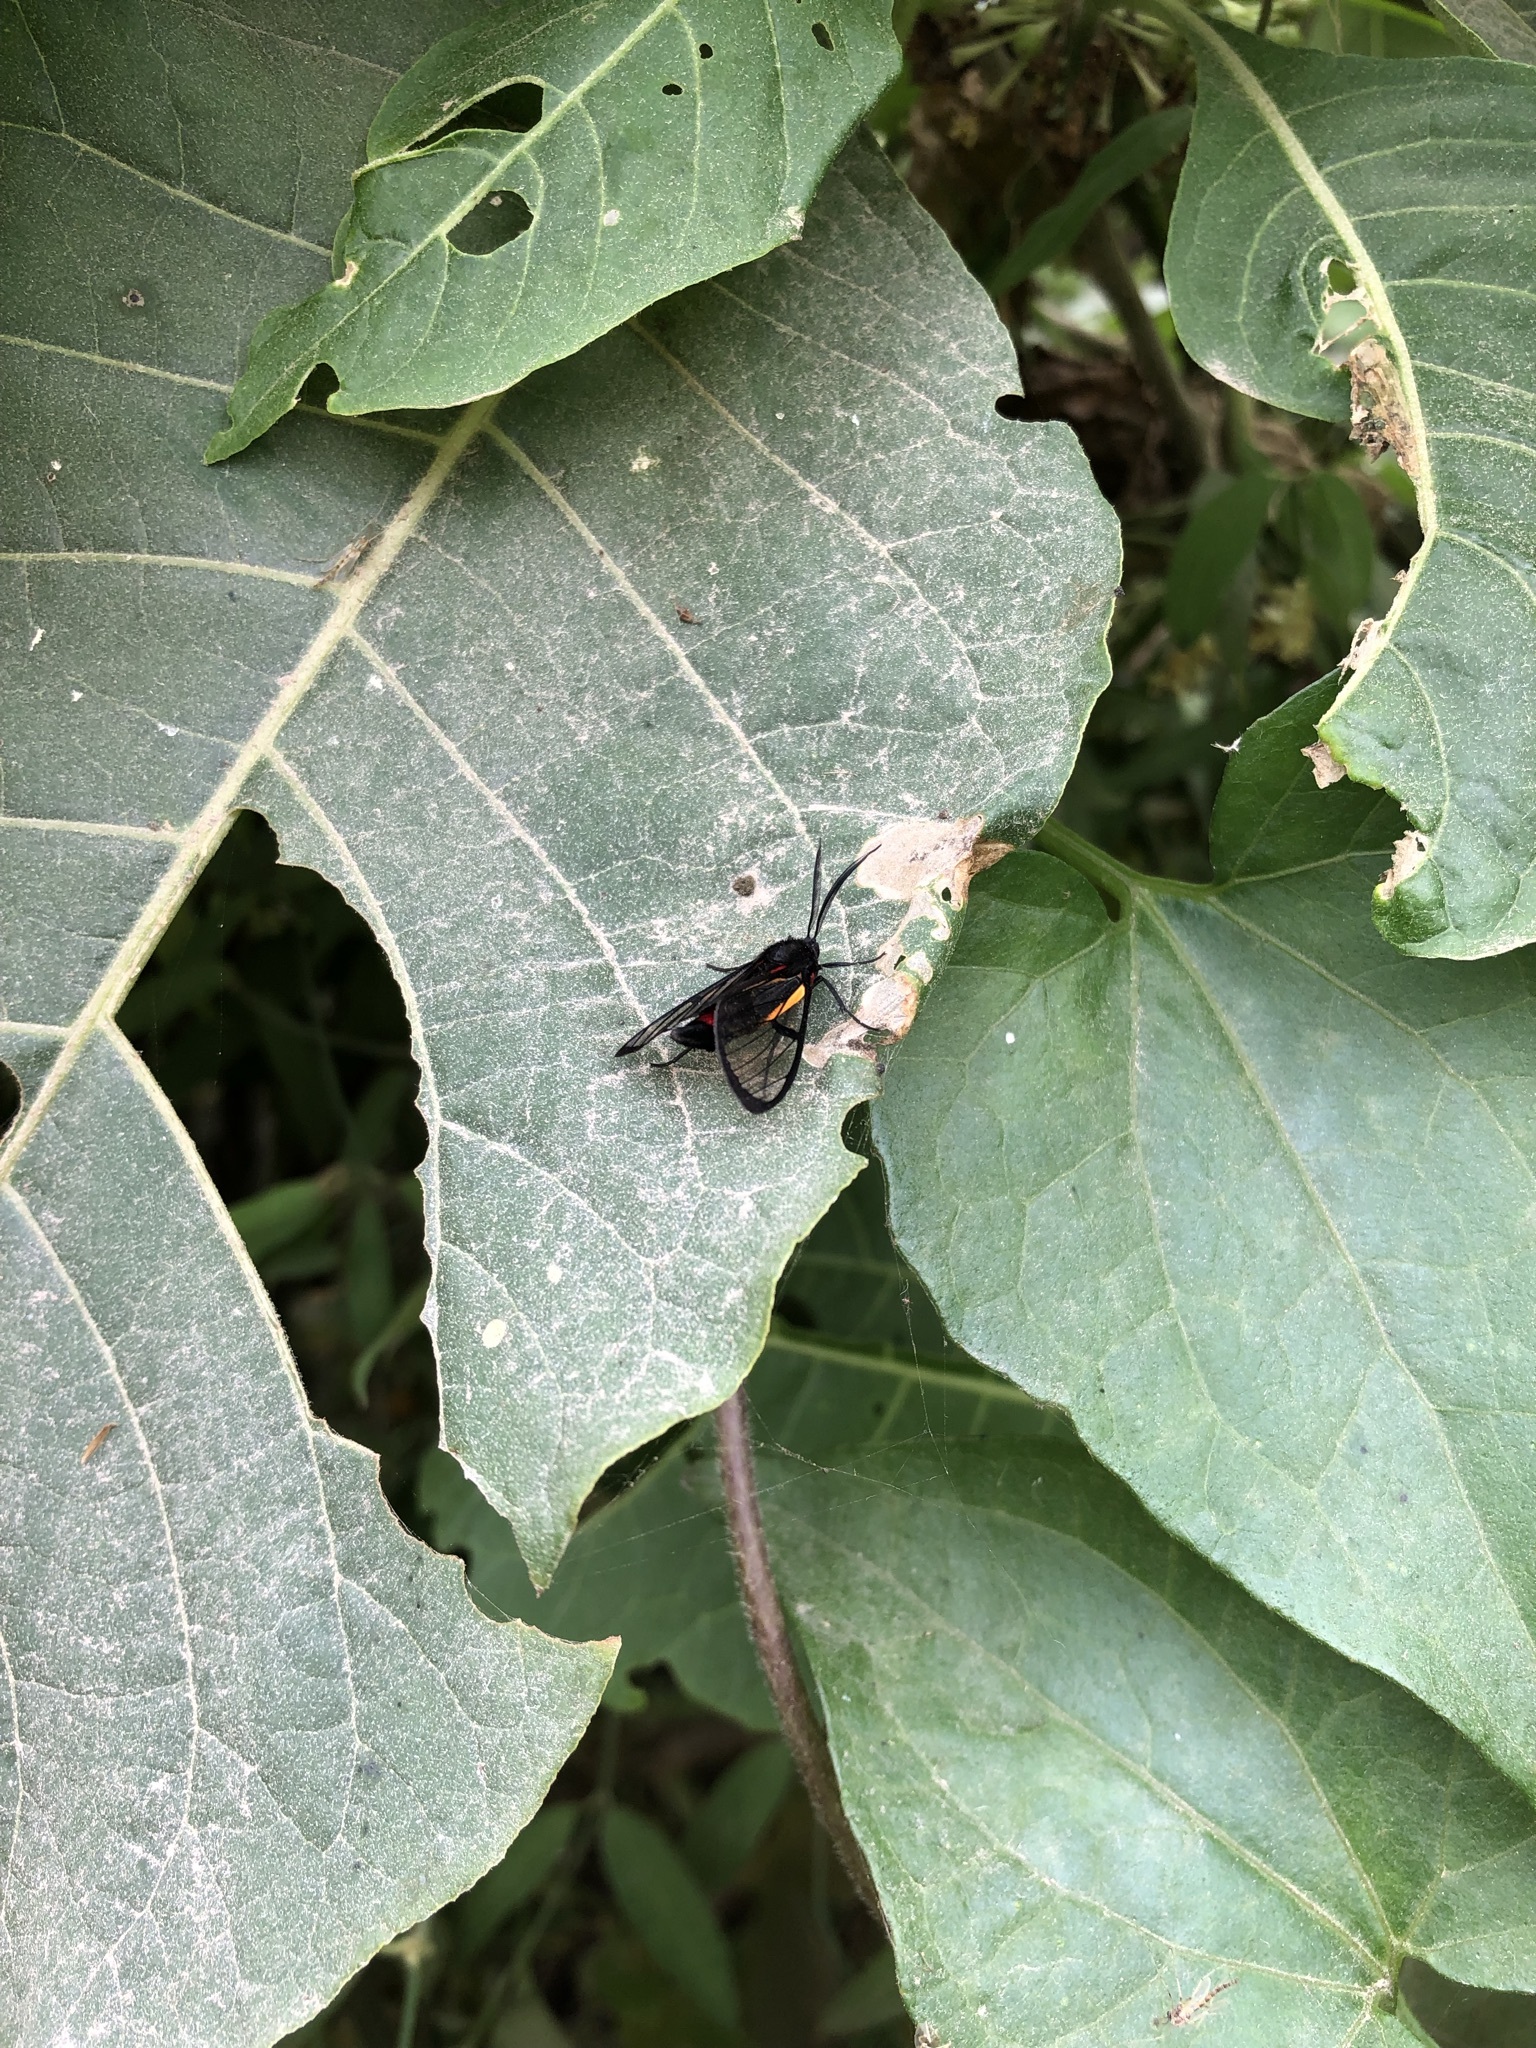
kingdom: Animalia
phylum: Arthropoda
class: Insecta
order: Lepidoptera
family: Erebidae
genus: Dinia
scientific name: Dinia subapicalis
